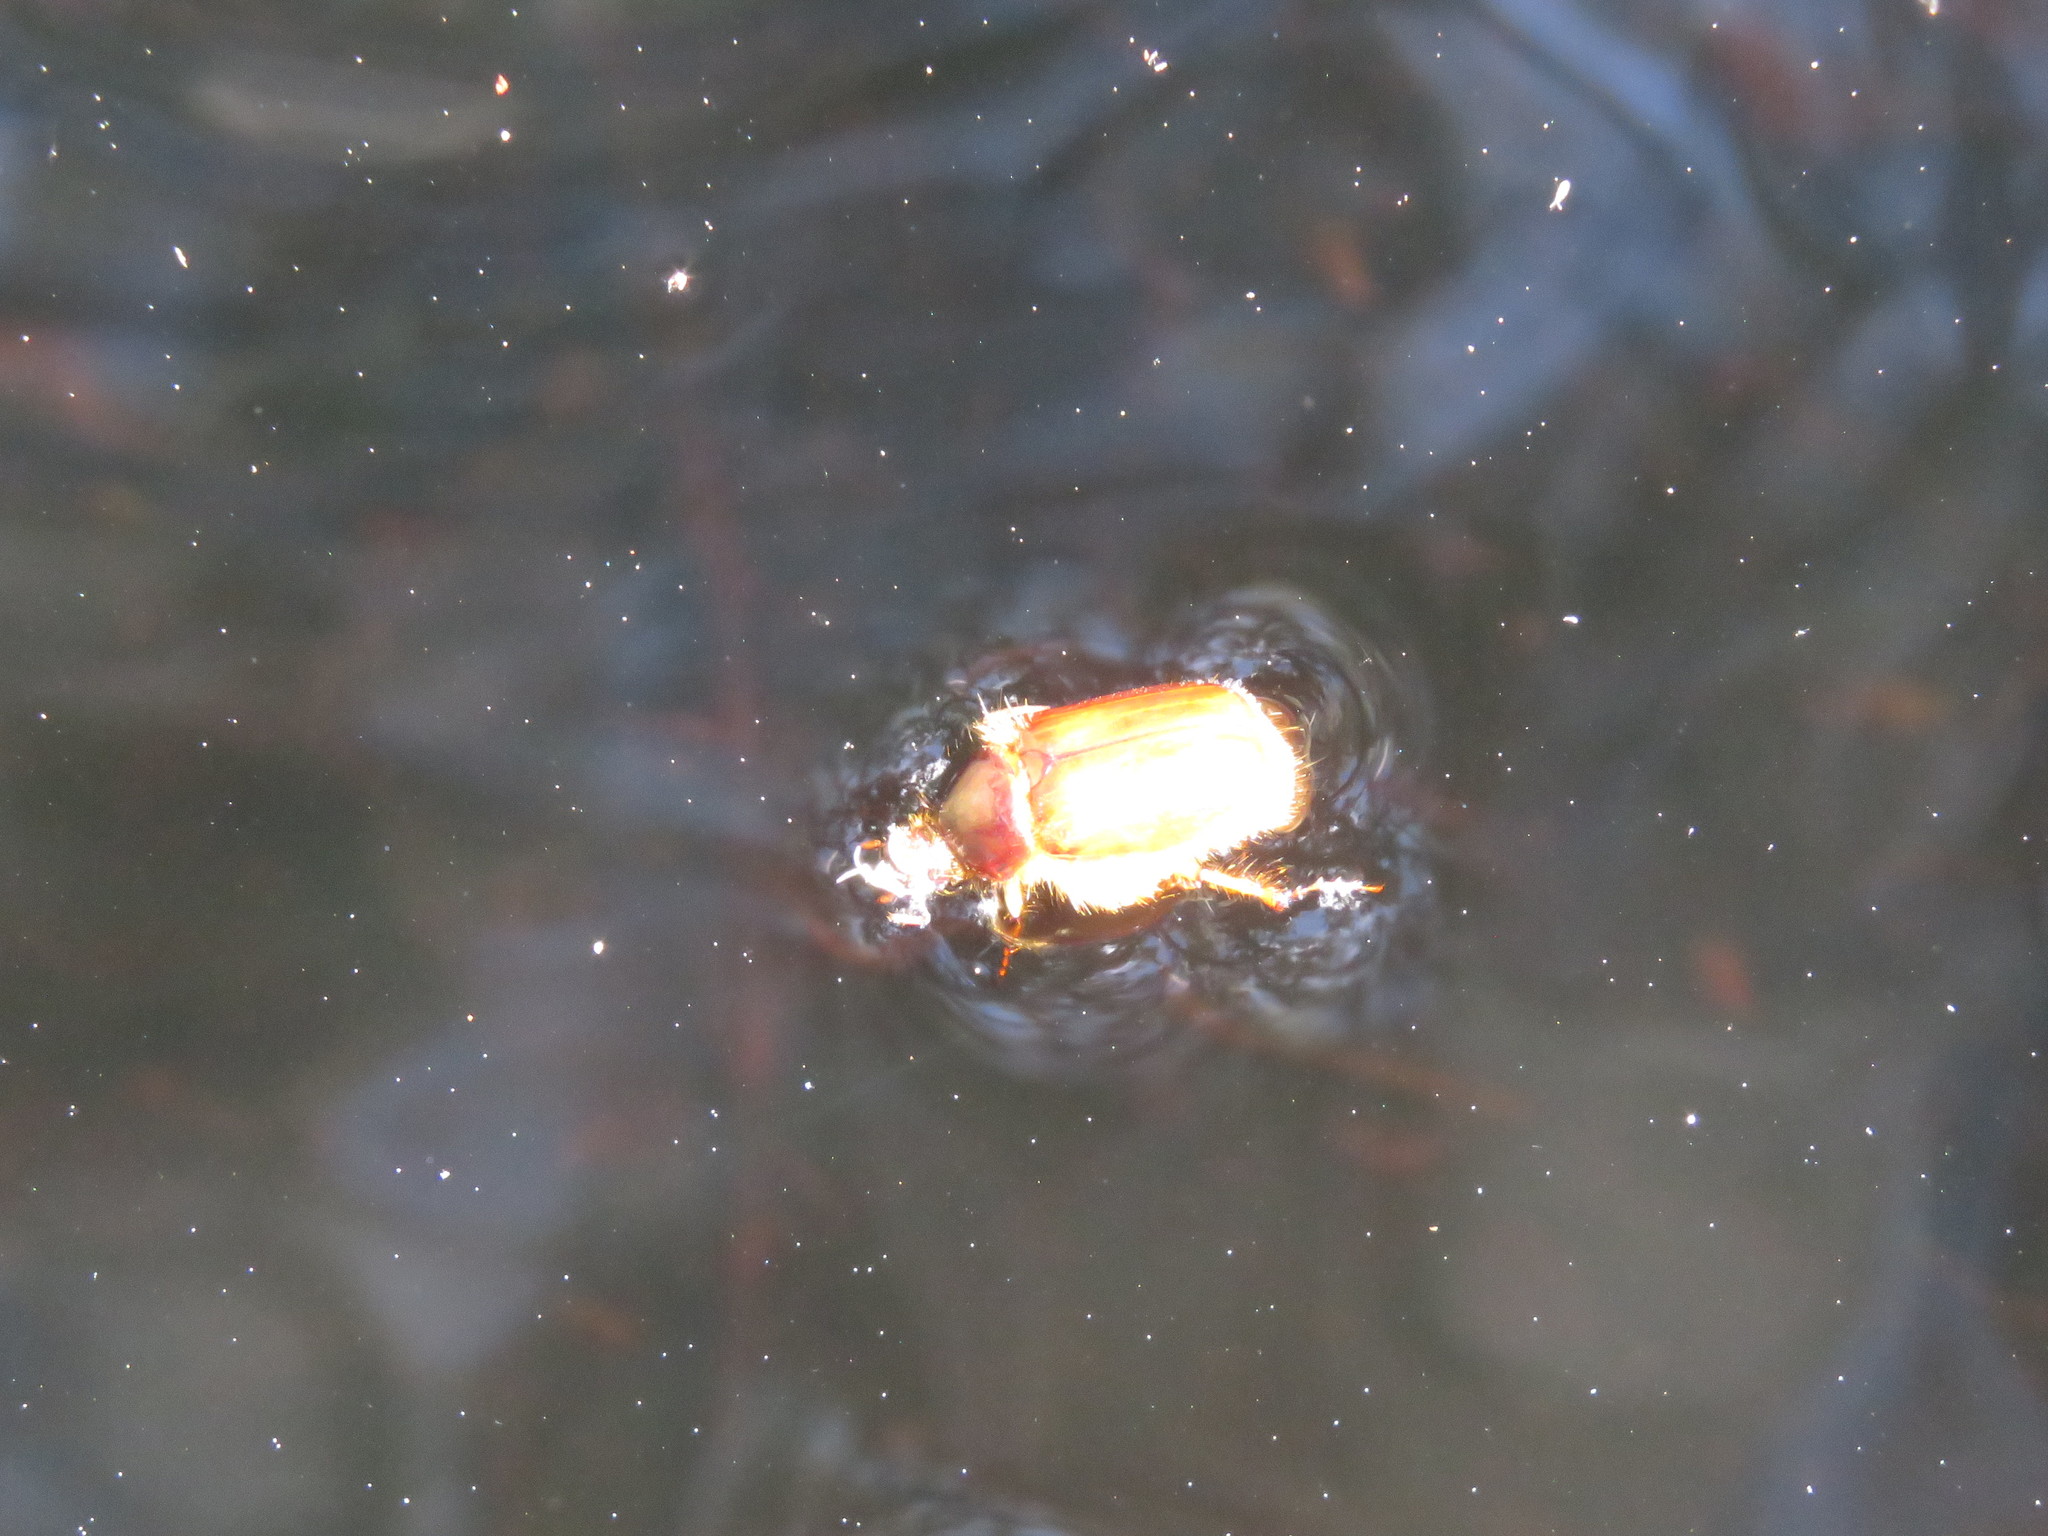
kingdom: Animalia
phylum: Arthropoda
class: Insecta
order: Coleoptera
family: Scarabaeidae
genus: Paulosawaya
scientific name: Paulosawaya ursina
